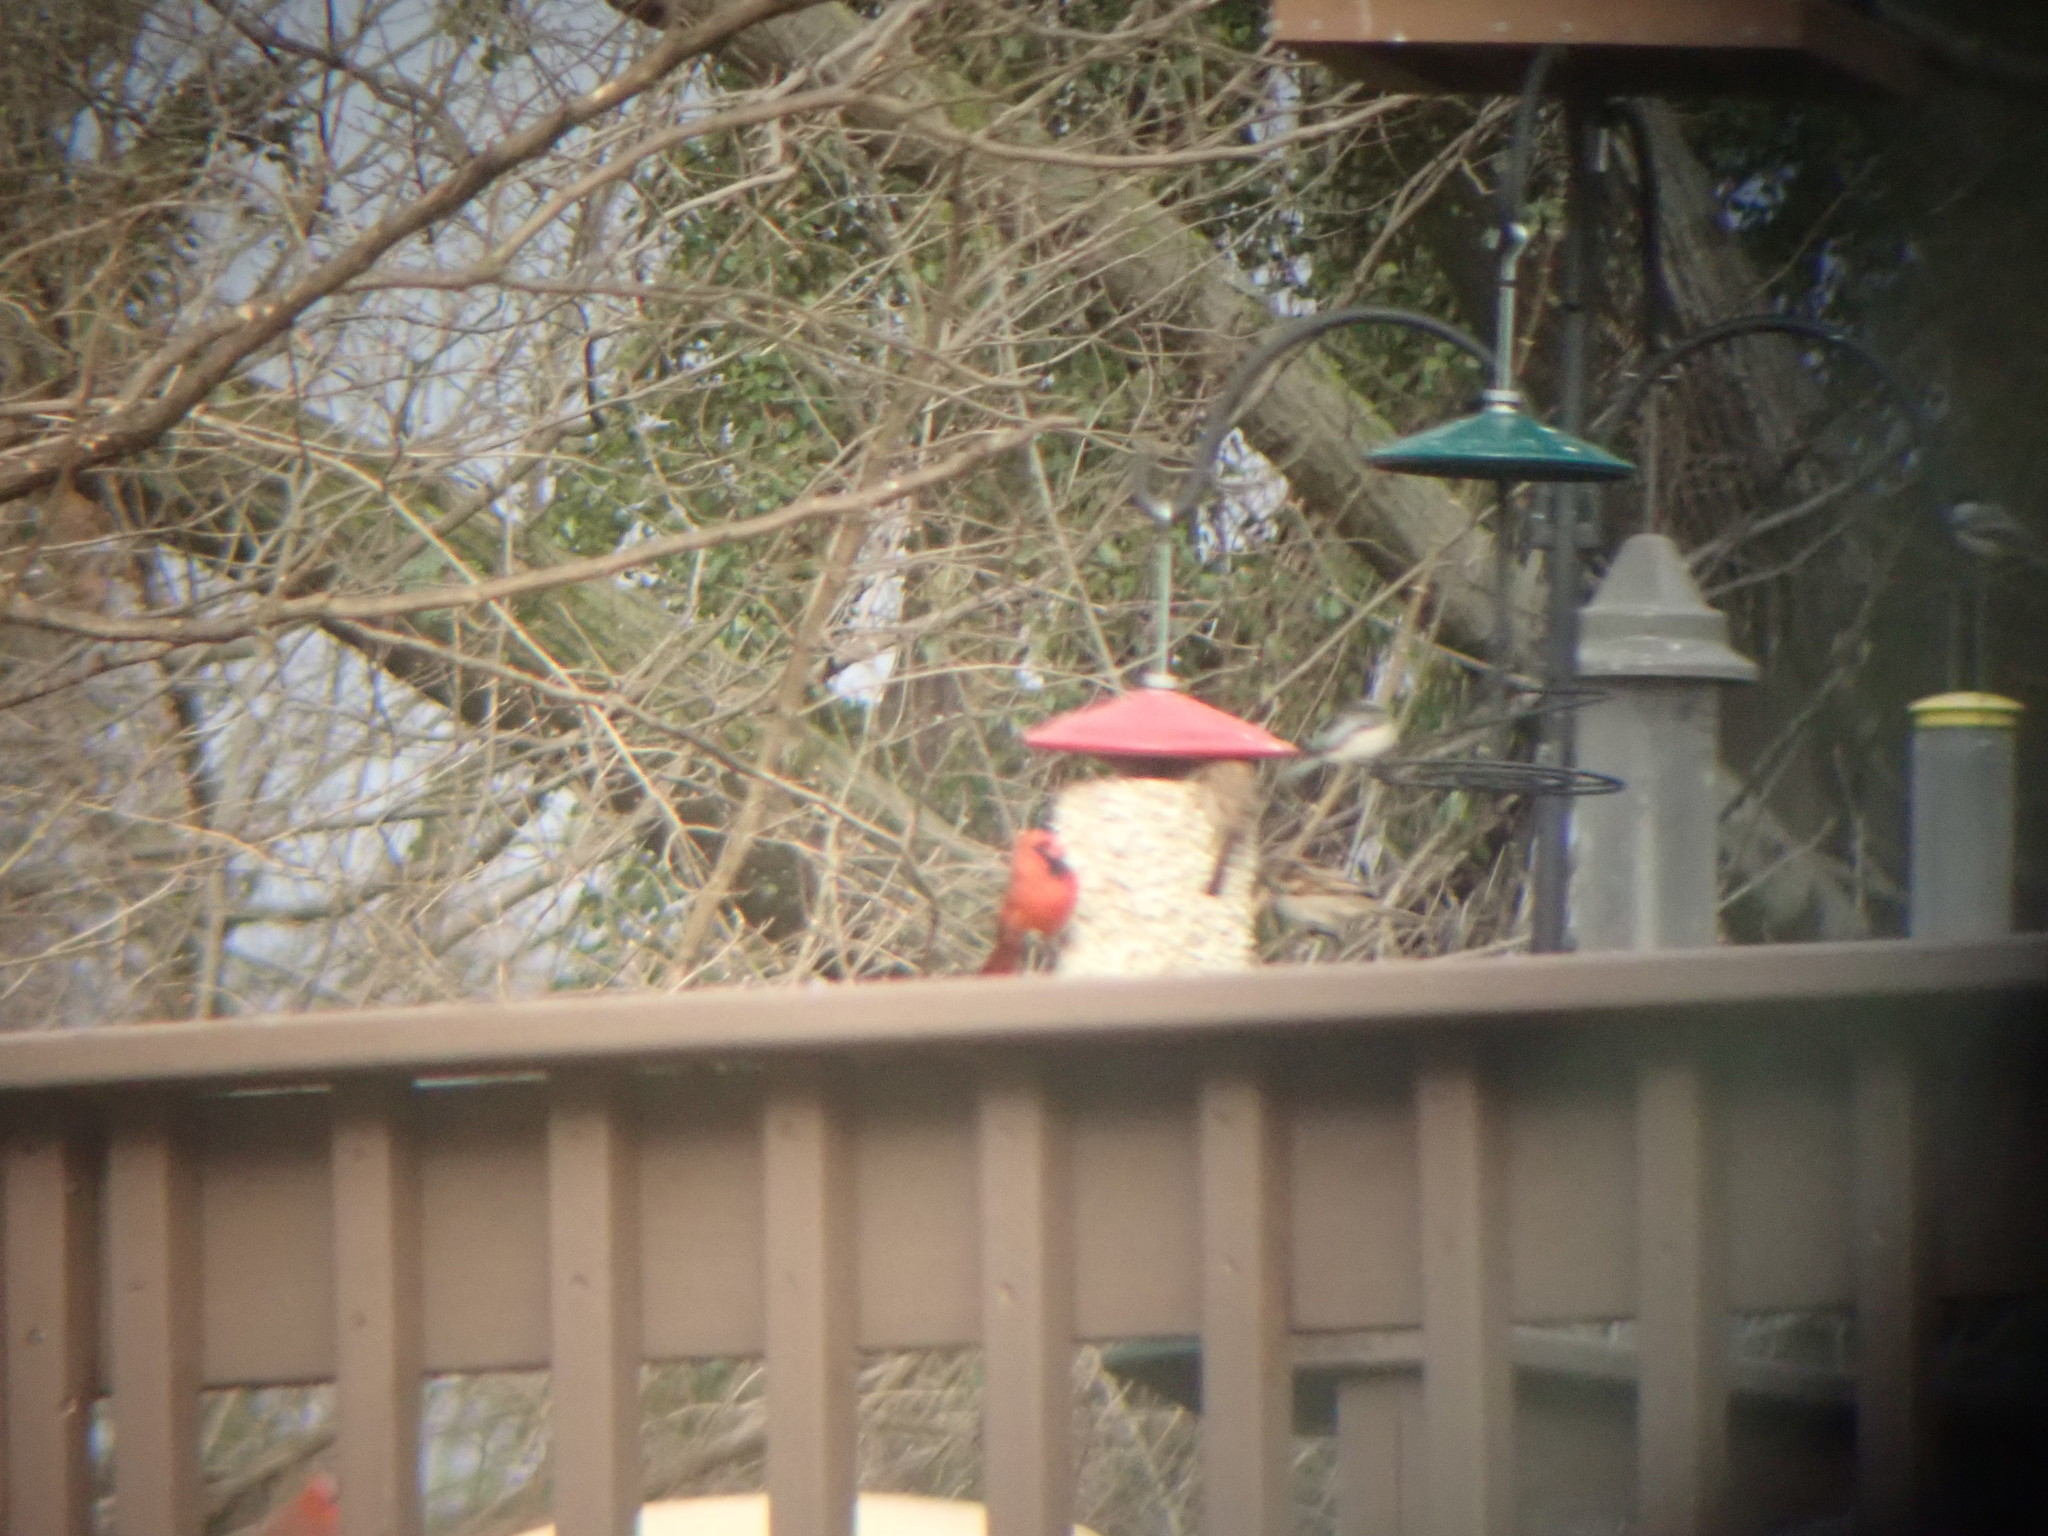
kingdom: Animalia
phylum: Chordata
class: Aves
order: Passeriformes
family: Cardinalidae
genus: Cardinalis
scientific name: Cardinalis cardinalis
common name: Northern cardinal
